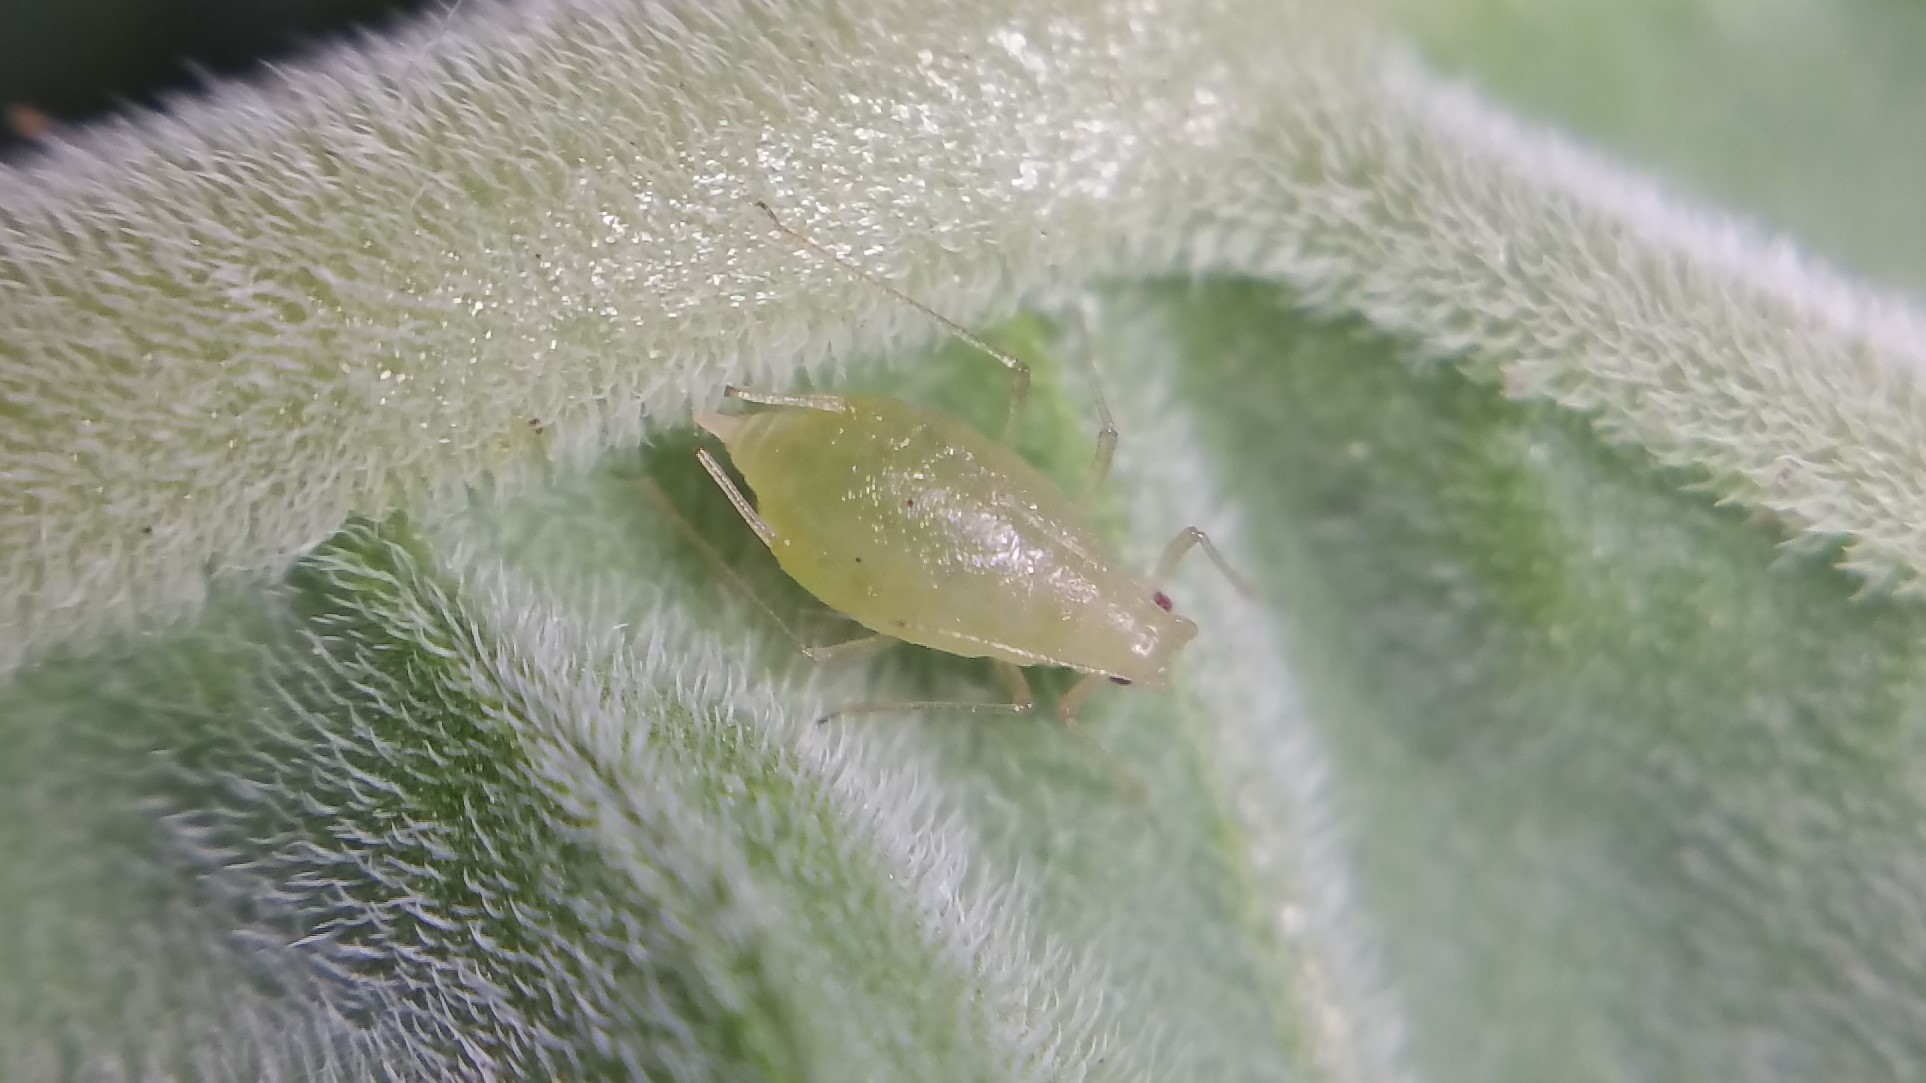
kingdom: Animalia
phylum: Arthropoda
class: Insecta
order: Hemiptera
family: Aphididae
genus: Myzus
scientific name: Myzus persicae
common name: Green peach aphid
